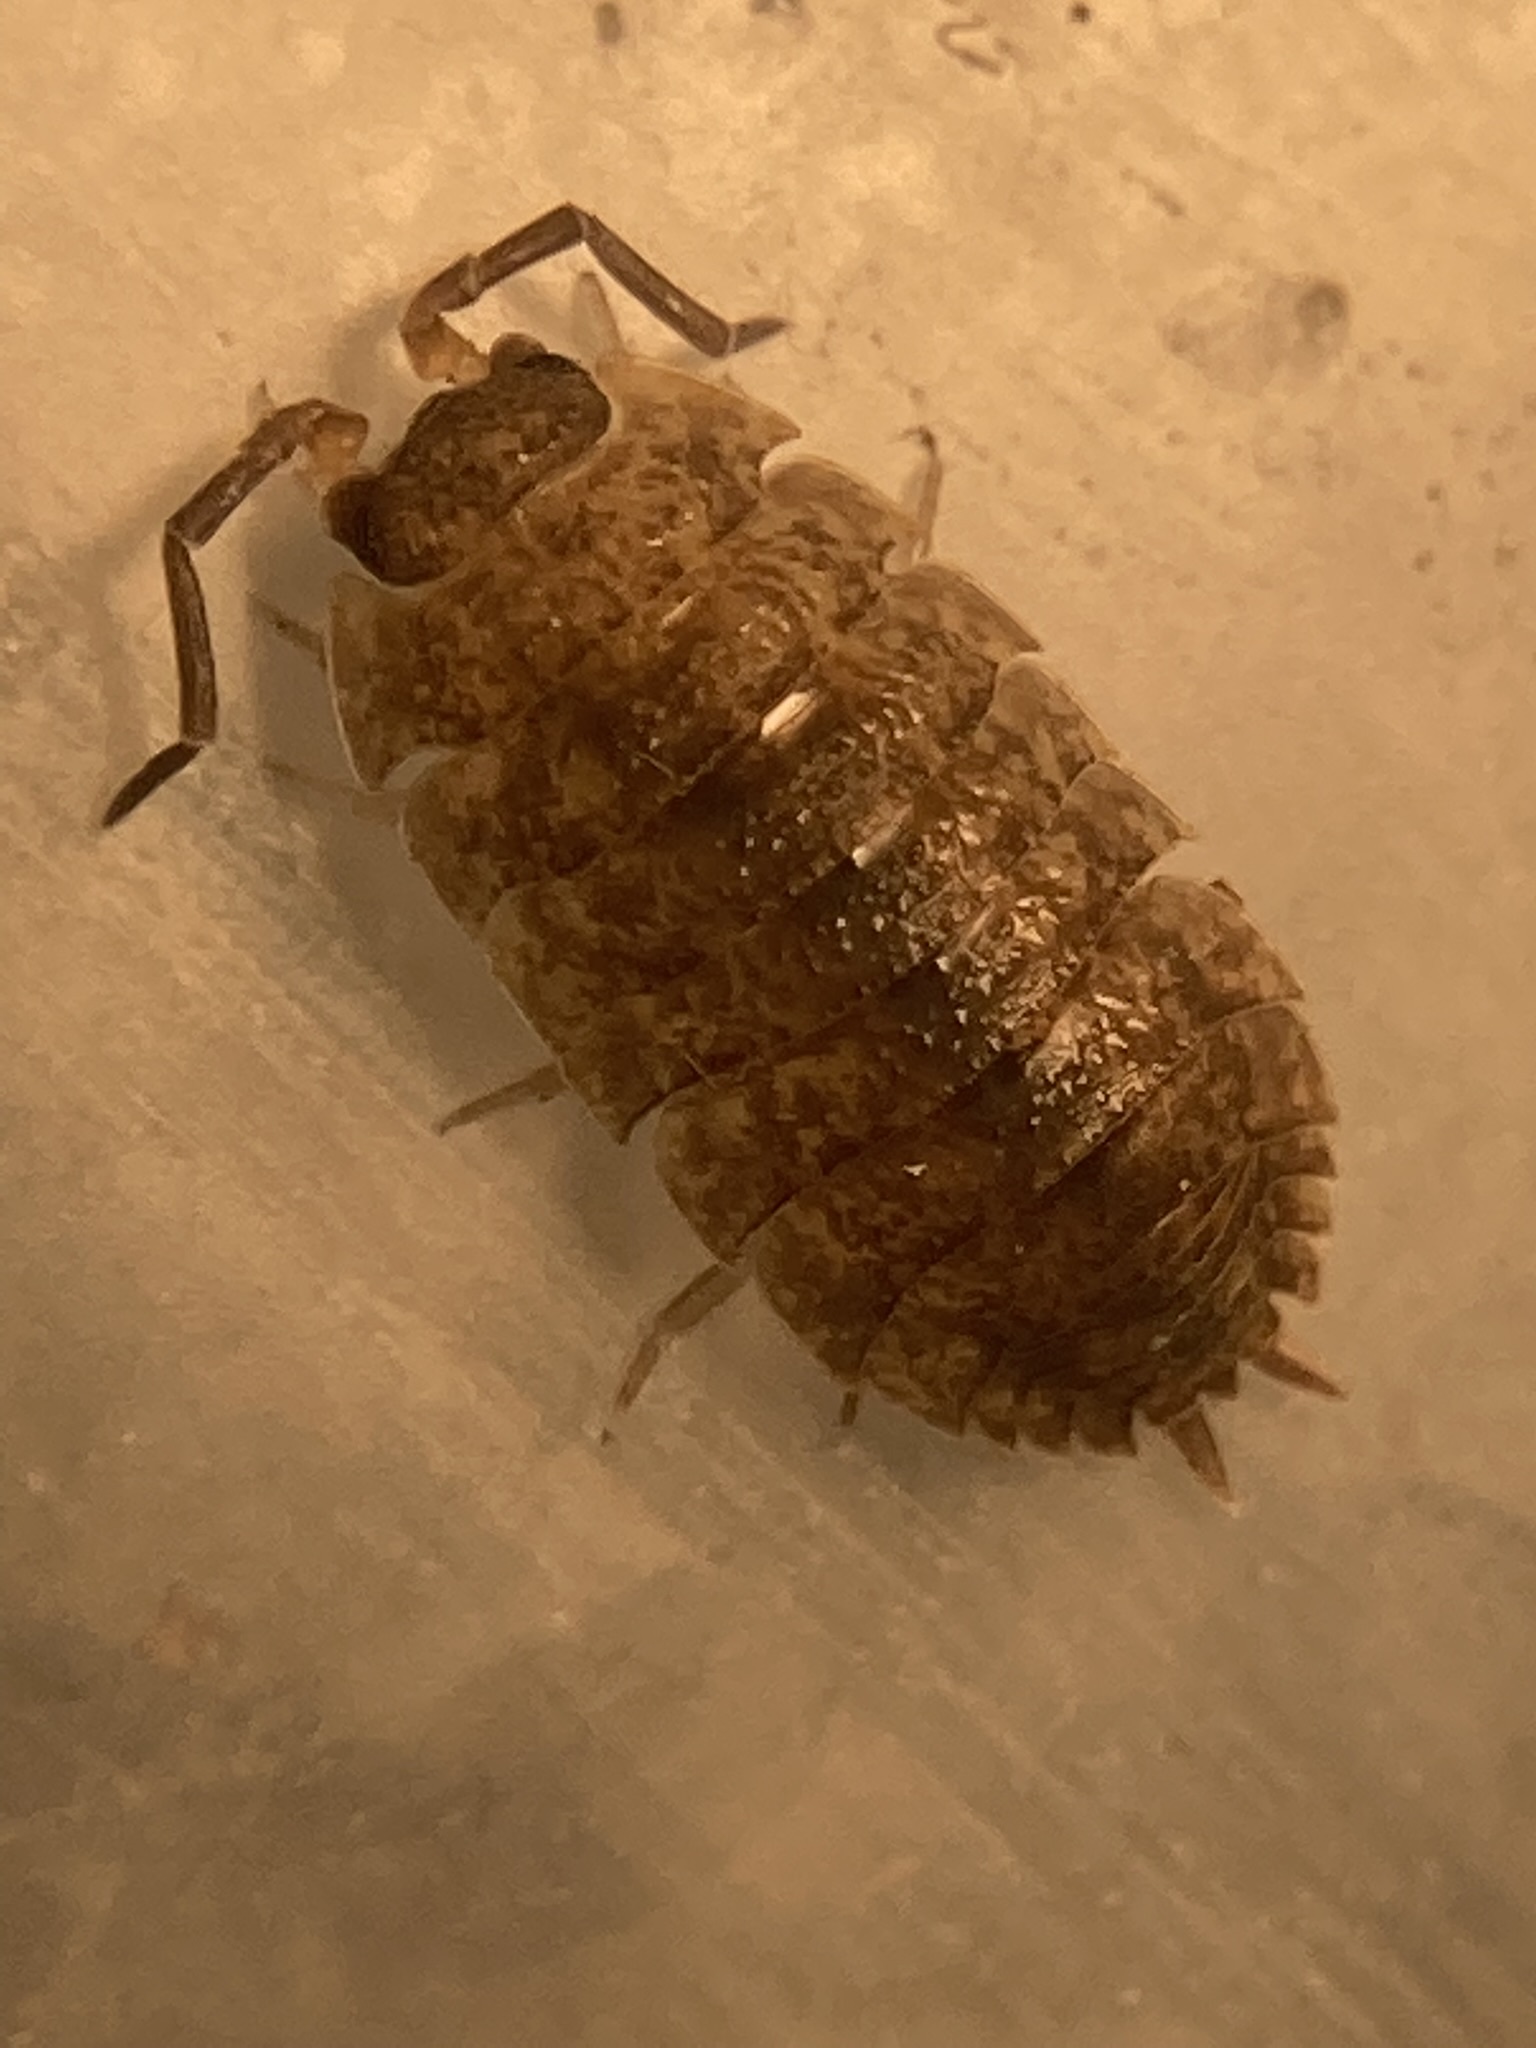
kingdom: Animalia
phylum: Arthropoda
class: Malacostraca
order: Isopoda
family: Porcellionidae
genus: Porcellio
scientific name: Porcellio scaber
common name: Common rough woodlouse
